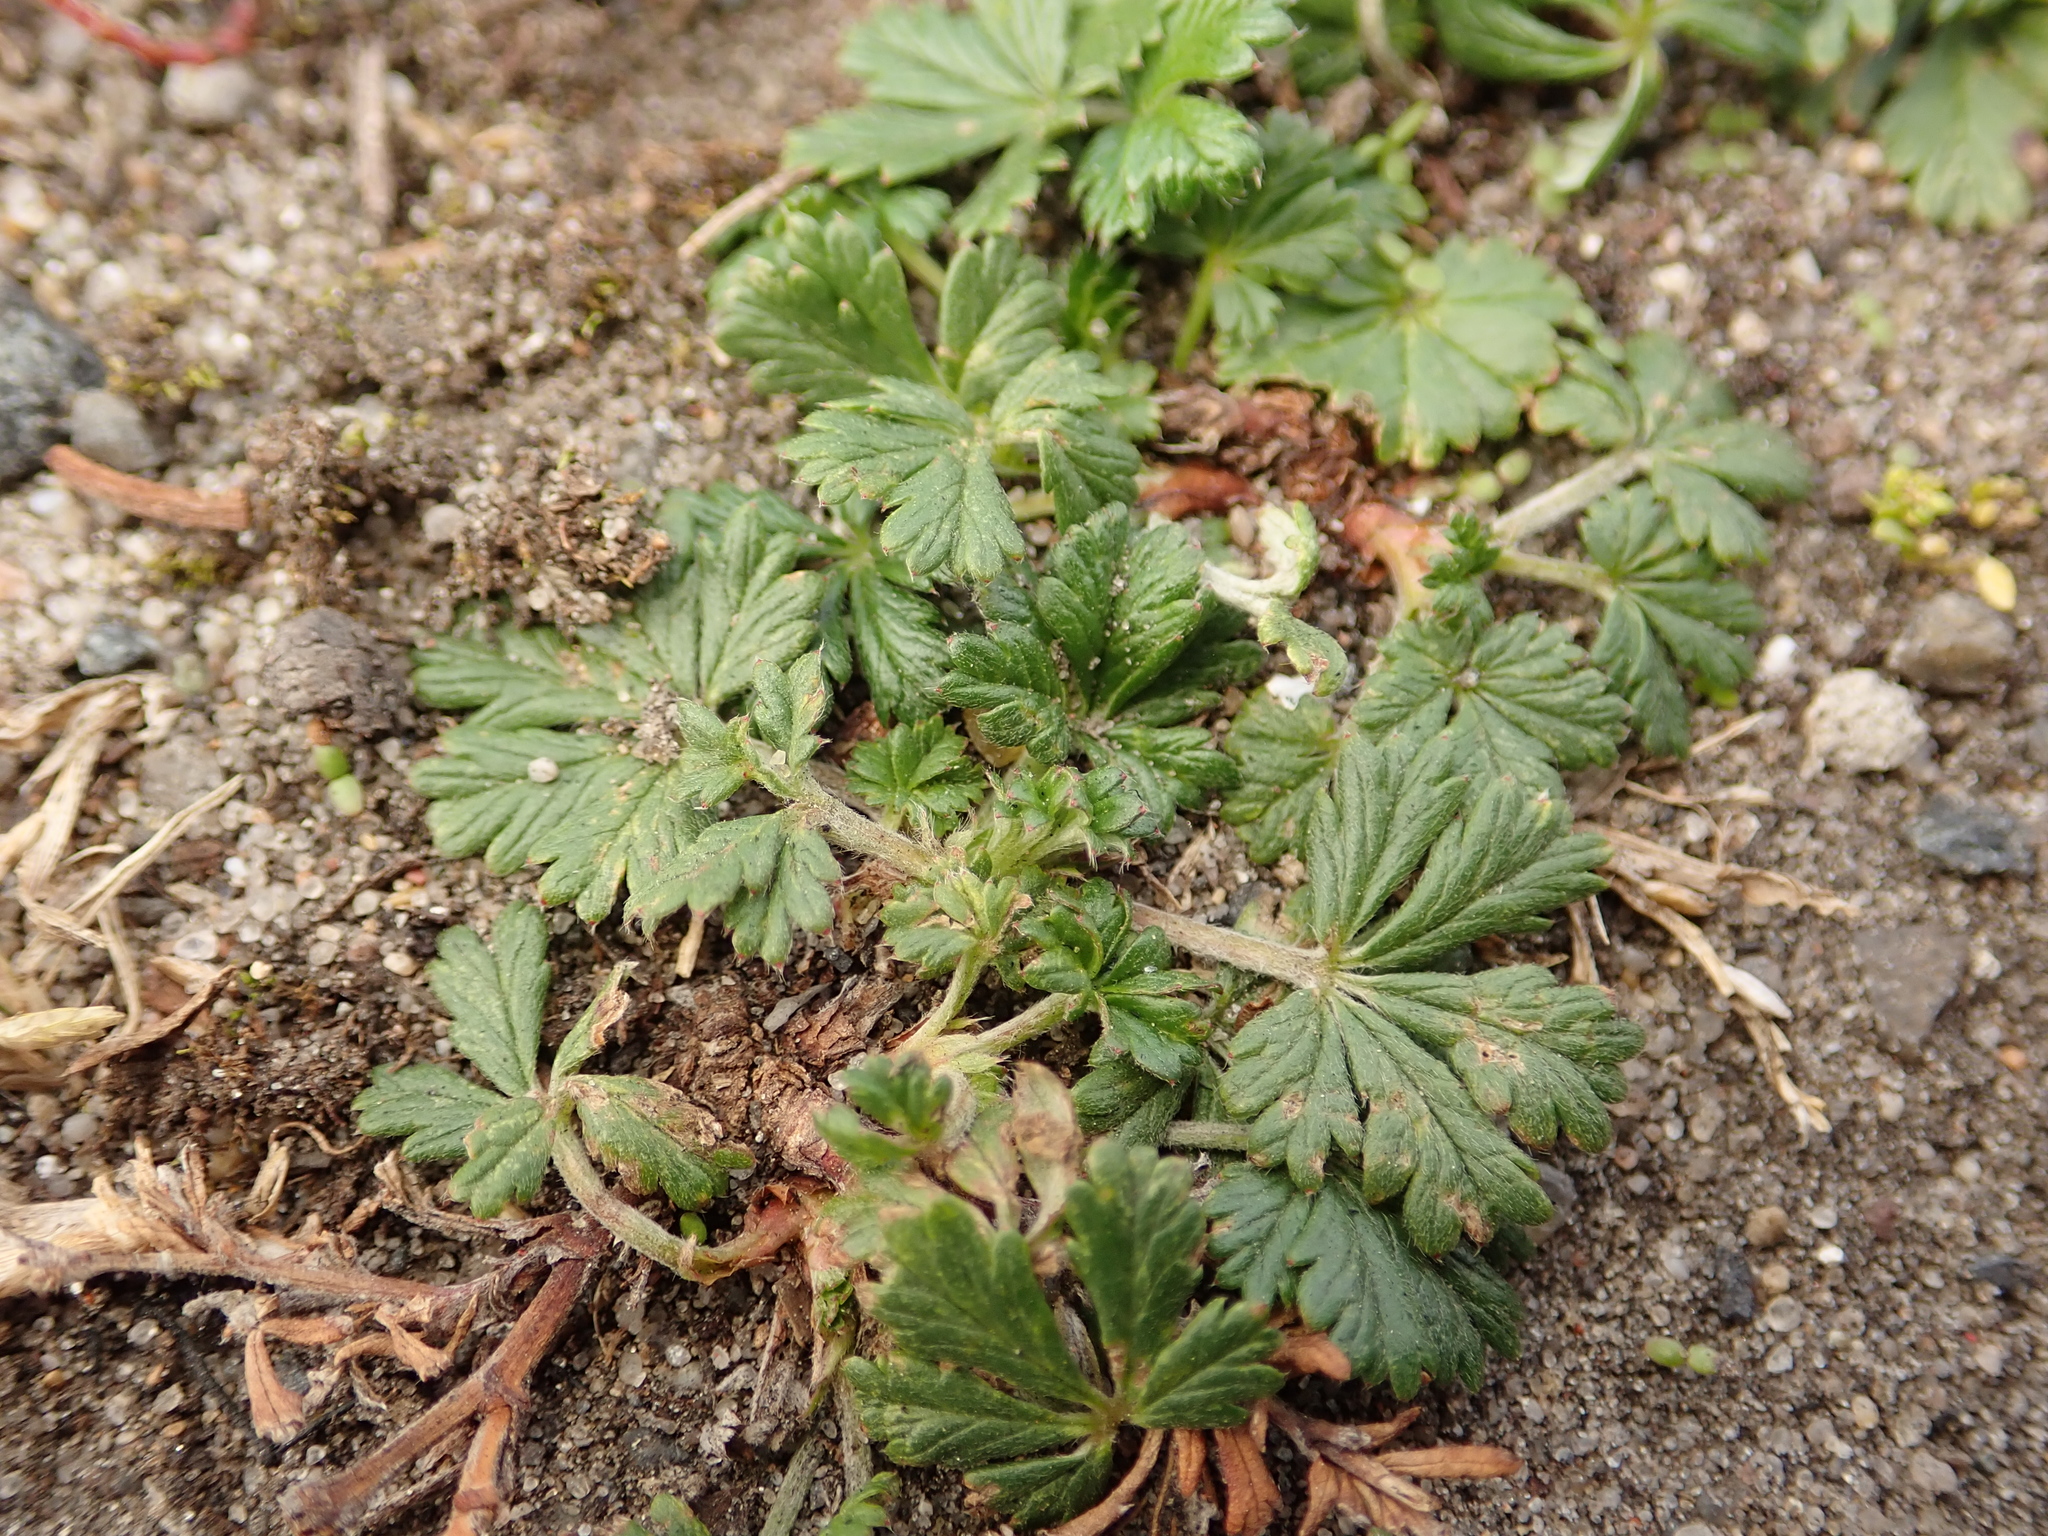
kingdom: Plantae
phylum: Tracheophyta
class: Magnoliopsida
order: Rosales
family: Rosaceae
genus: Potentilla
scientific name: Potentilla argentea
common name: Hoary cinquefoil
